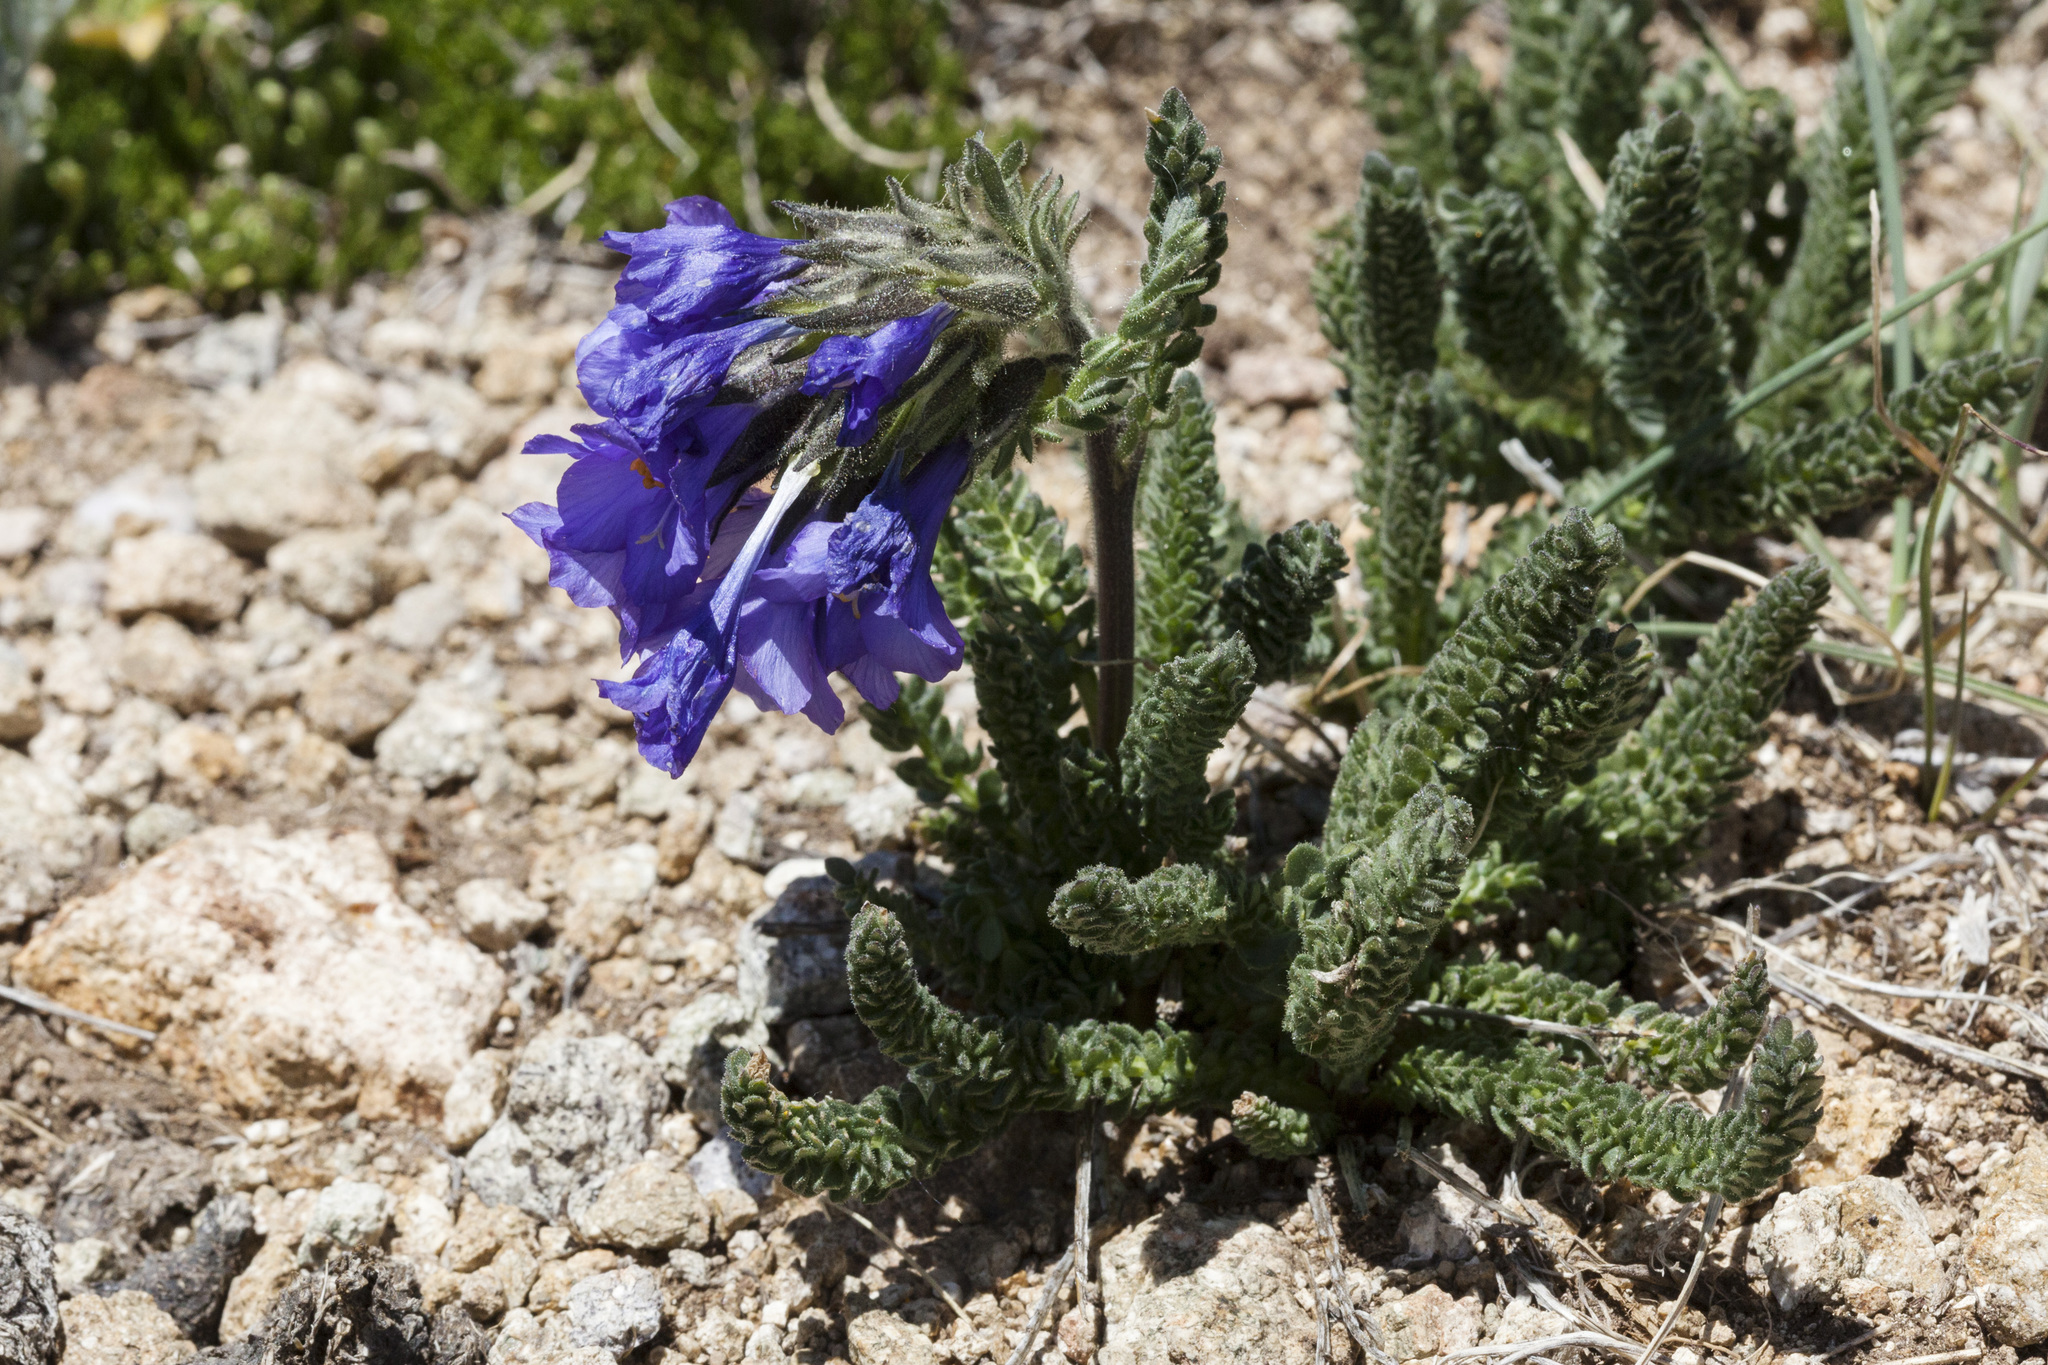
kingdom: Plantae
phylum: Tracheophyta
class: Magnoliopsida
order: Ericales
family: Polemoniaceae
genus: Polemonium
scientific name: Polemonium viscosum
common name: Skunk jacob's-ladder
